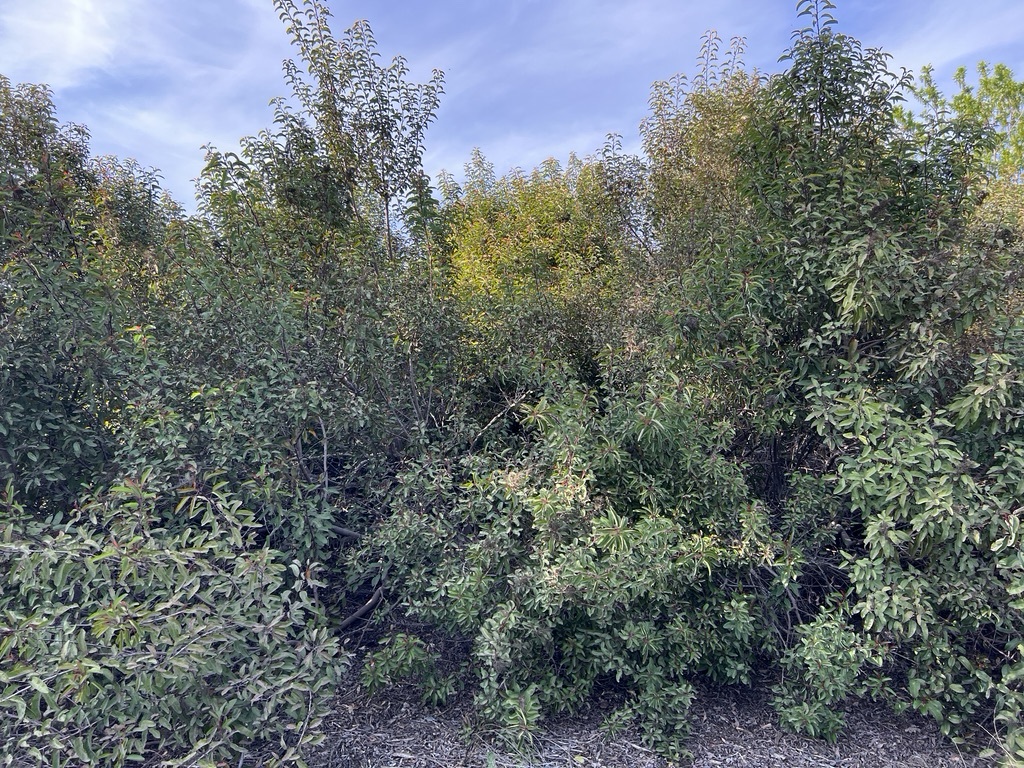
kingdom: Plantae
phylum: Tracheophyta
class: Magnoliopsida
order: Sapindales
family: Anacardiaceae
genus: Malosma
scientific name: Malosma laurina
